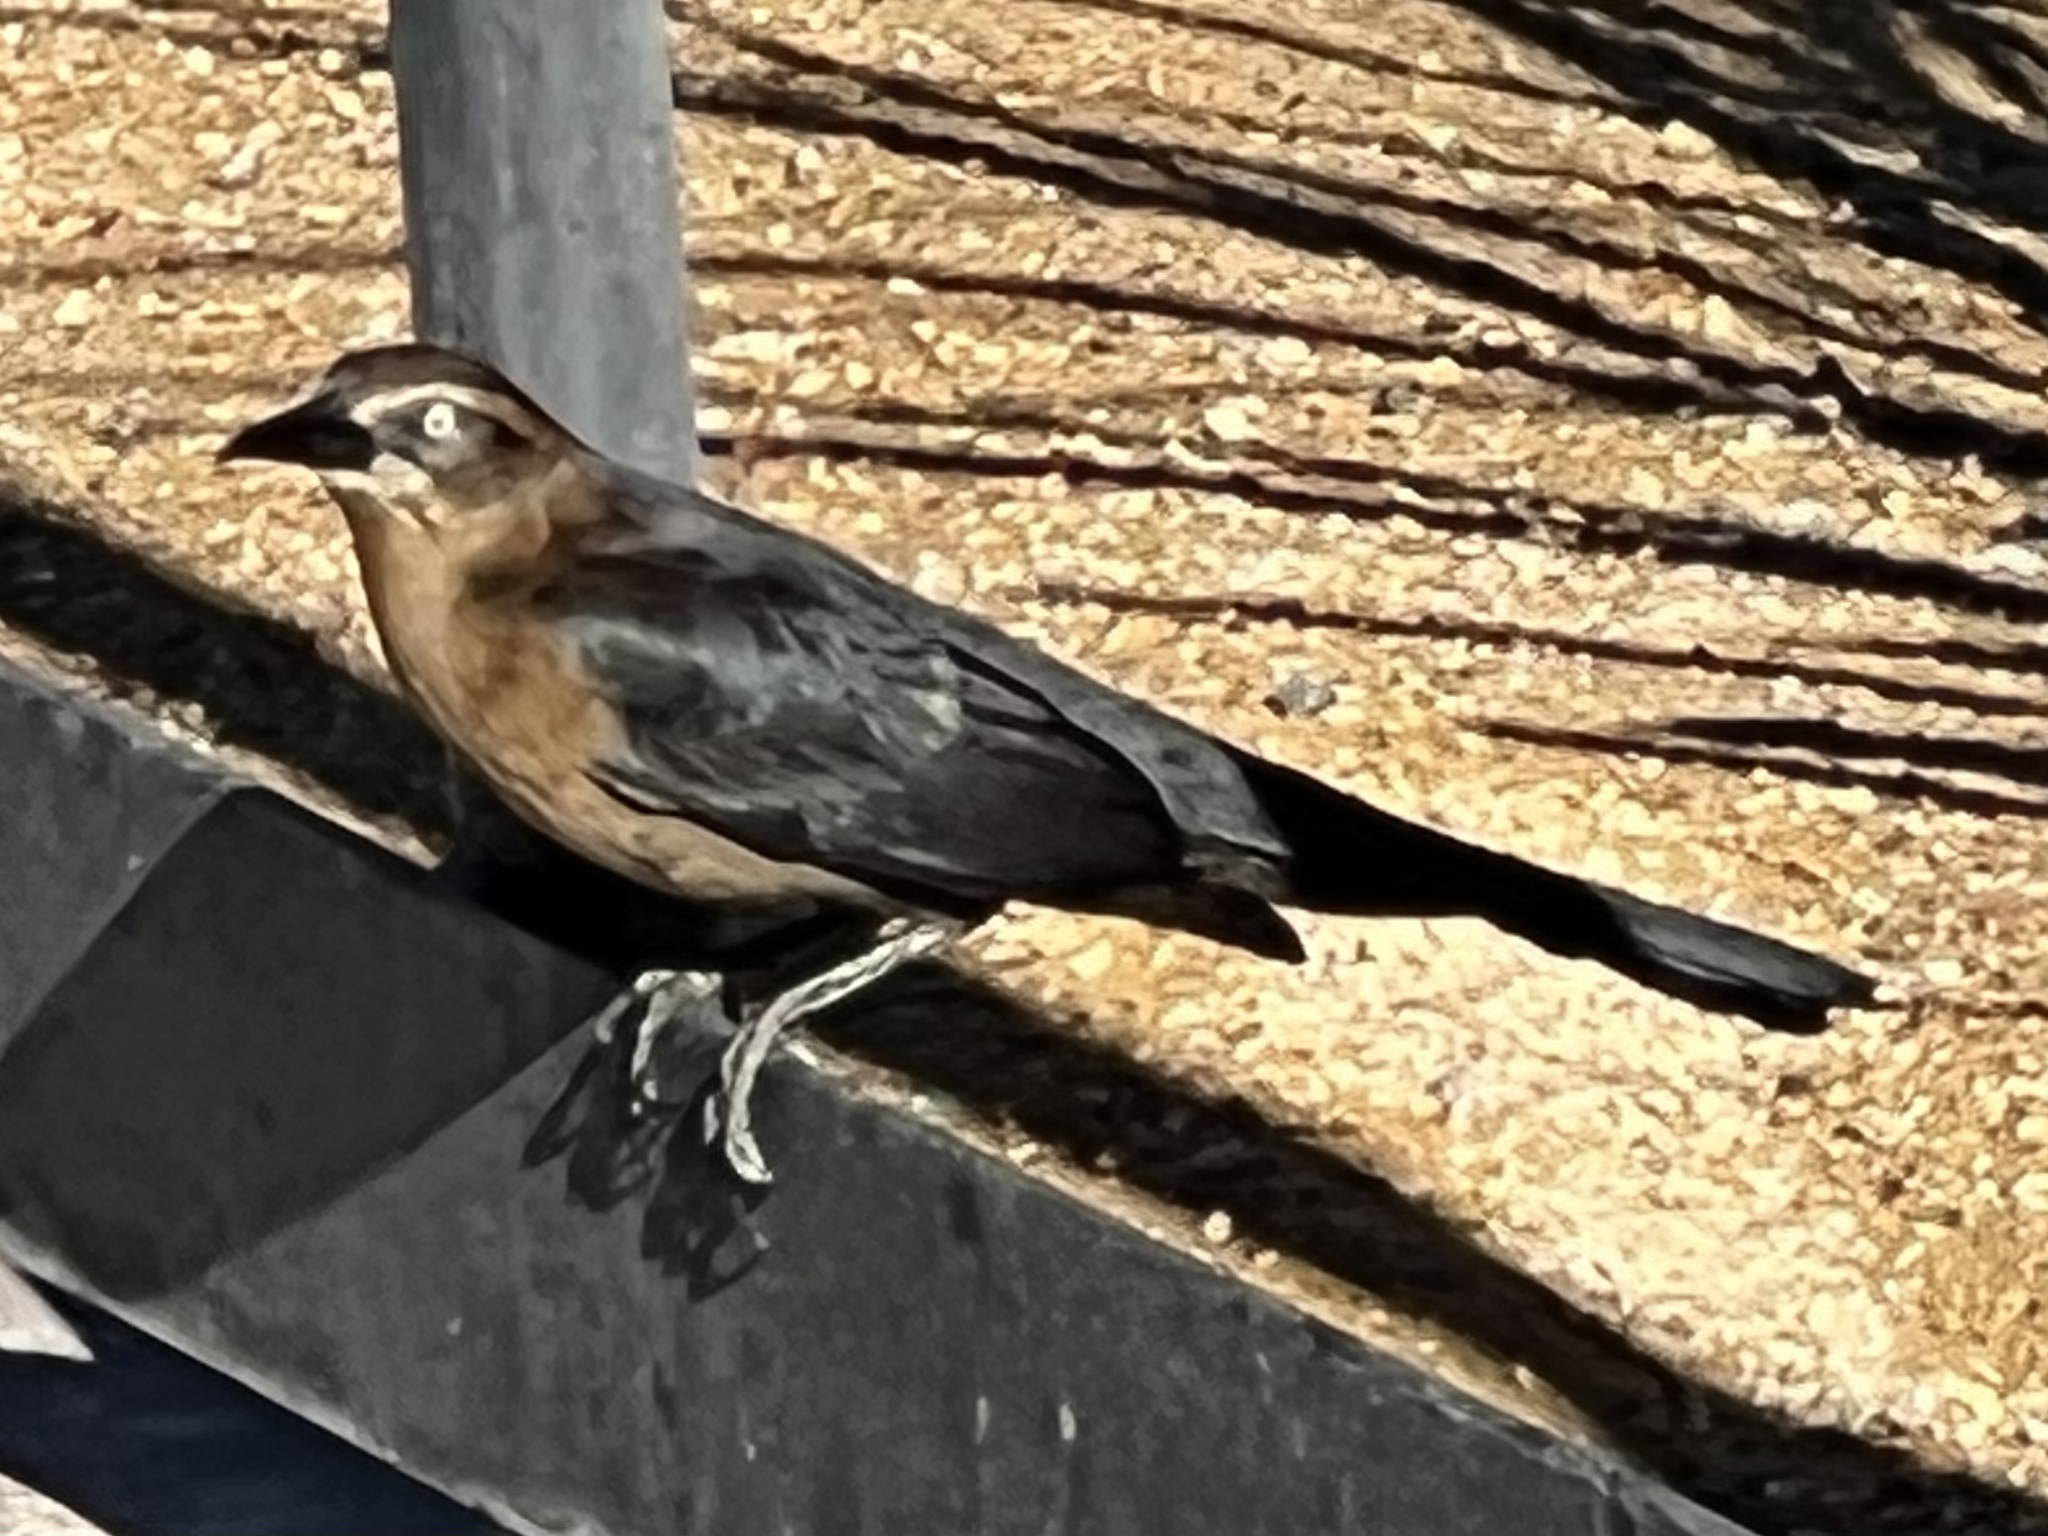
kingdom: Animalia
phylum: Chordata
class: Aves
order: Passeriformes
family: Icteridae
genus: Quiscalus
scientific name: Quiscalus mexicanus
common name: Great-tailed grackle
